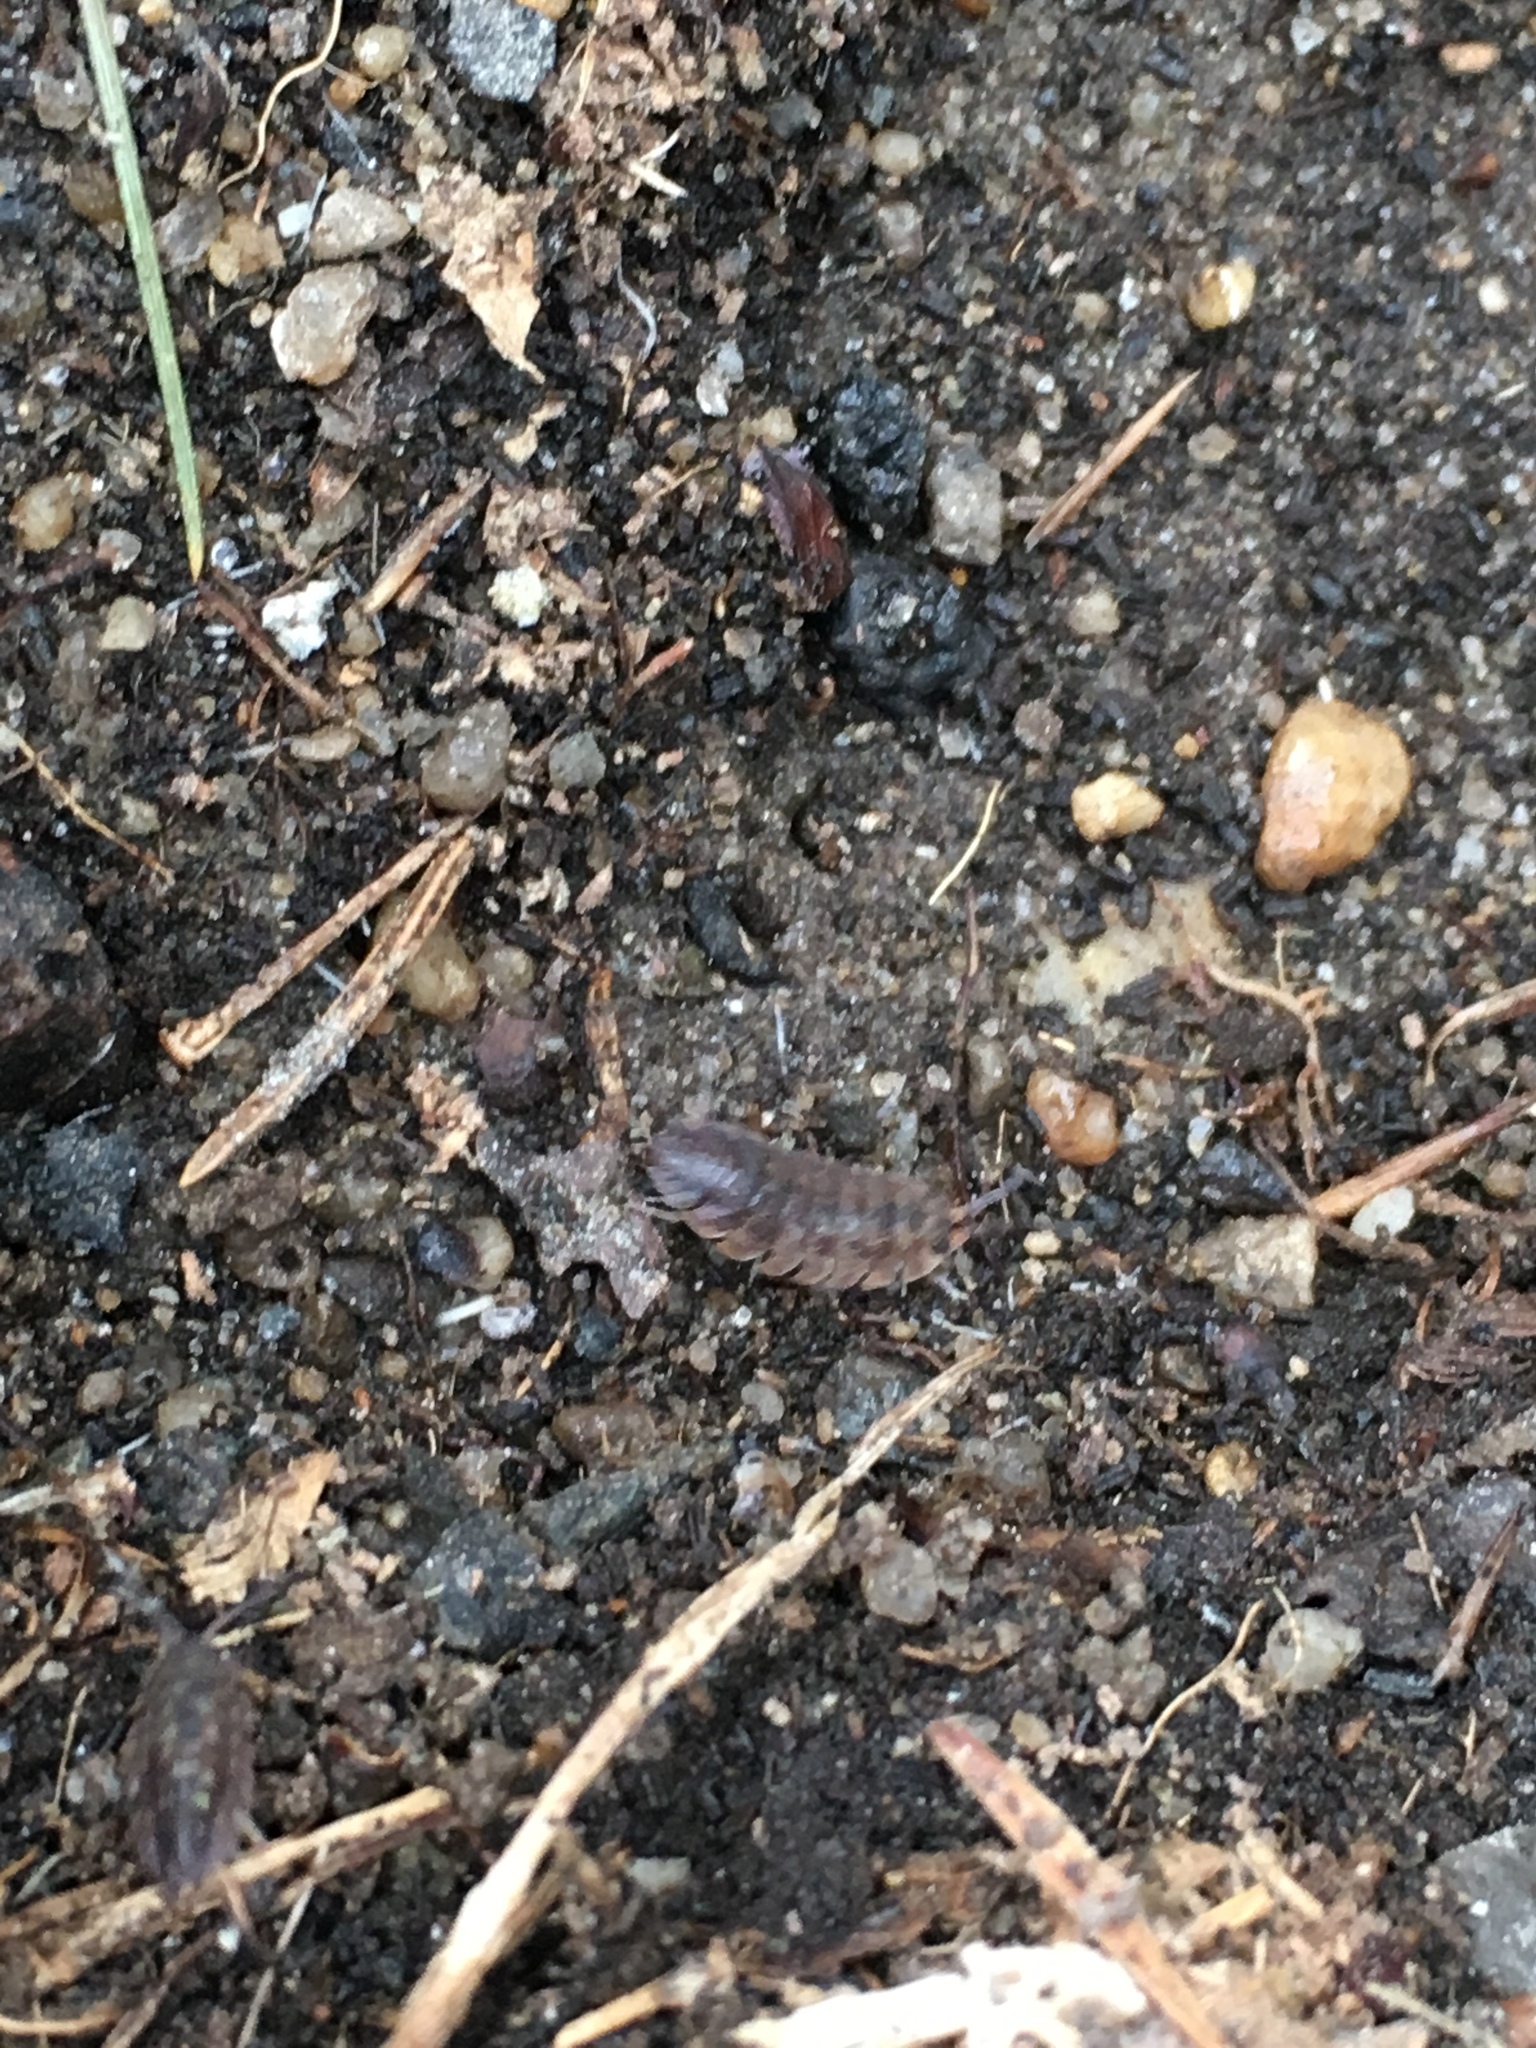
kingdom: Animalia
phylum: Arthropoda
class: Malacostraca
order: Isopoda
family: Porcellionidae
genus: Porcellio
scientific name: Porcellio scaber
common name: Common rough woodlouse
